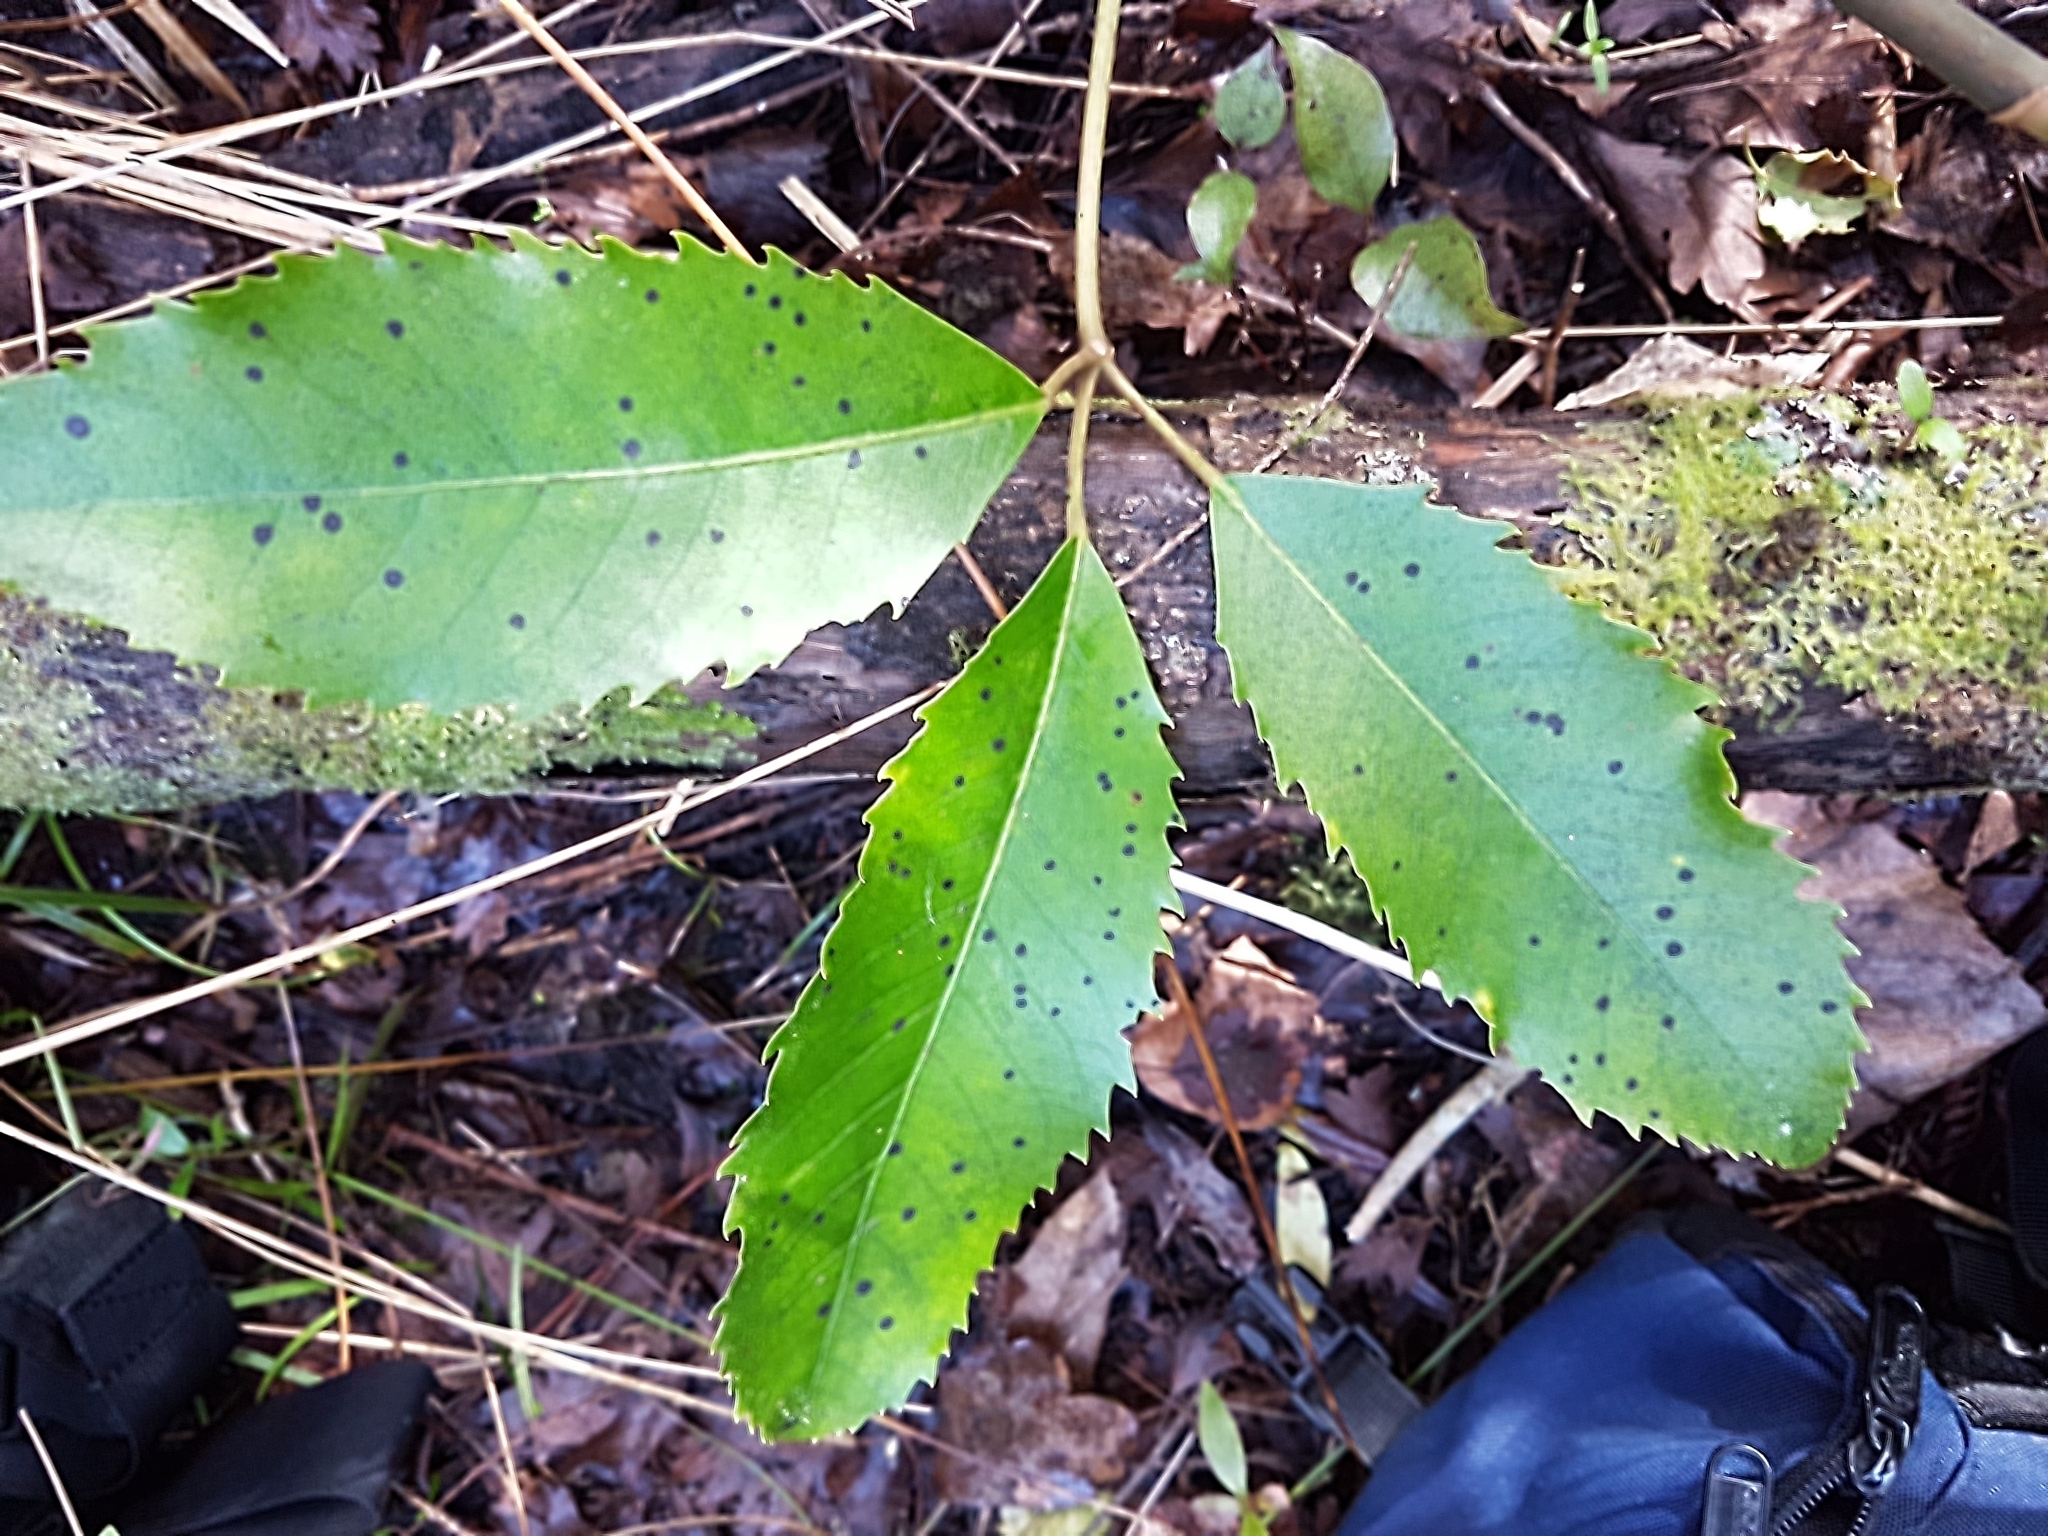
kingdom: Fungi
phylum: Ascomycota
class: Dothideomycetes
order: Asterinales
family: Asterinaceae
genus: Placosoma
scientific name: Placosoma nothopanacis
